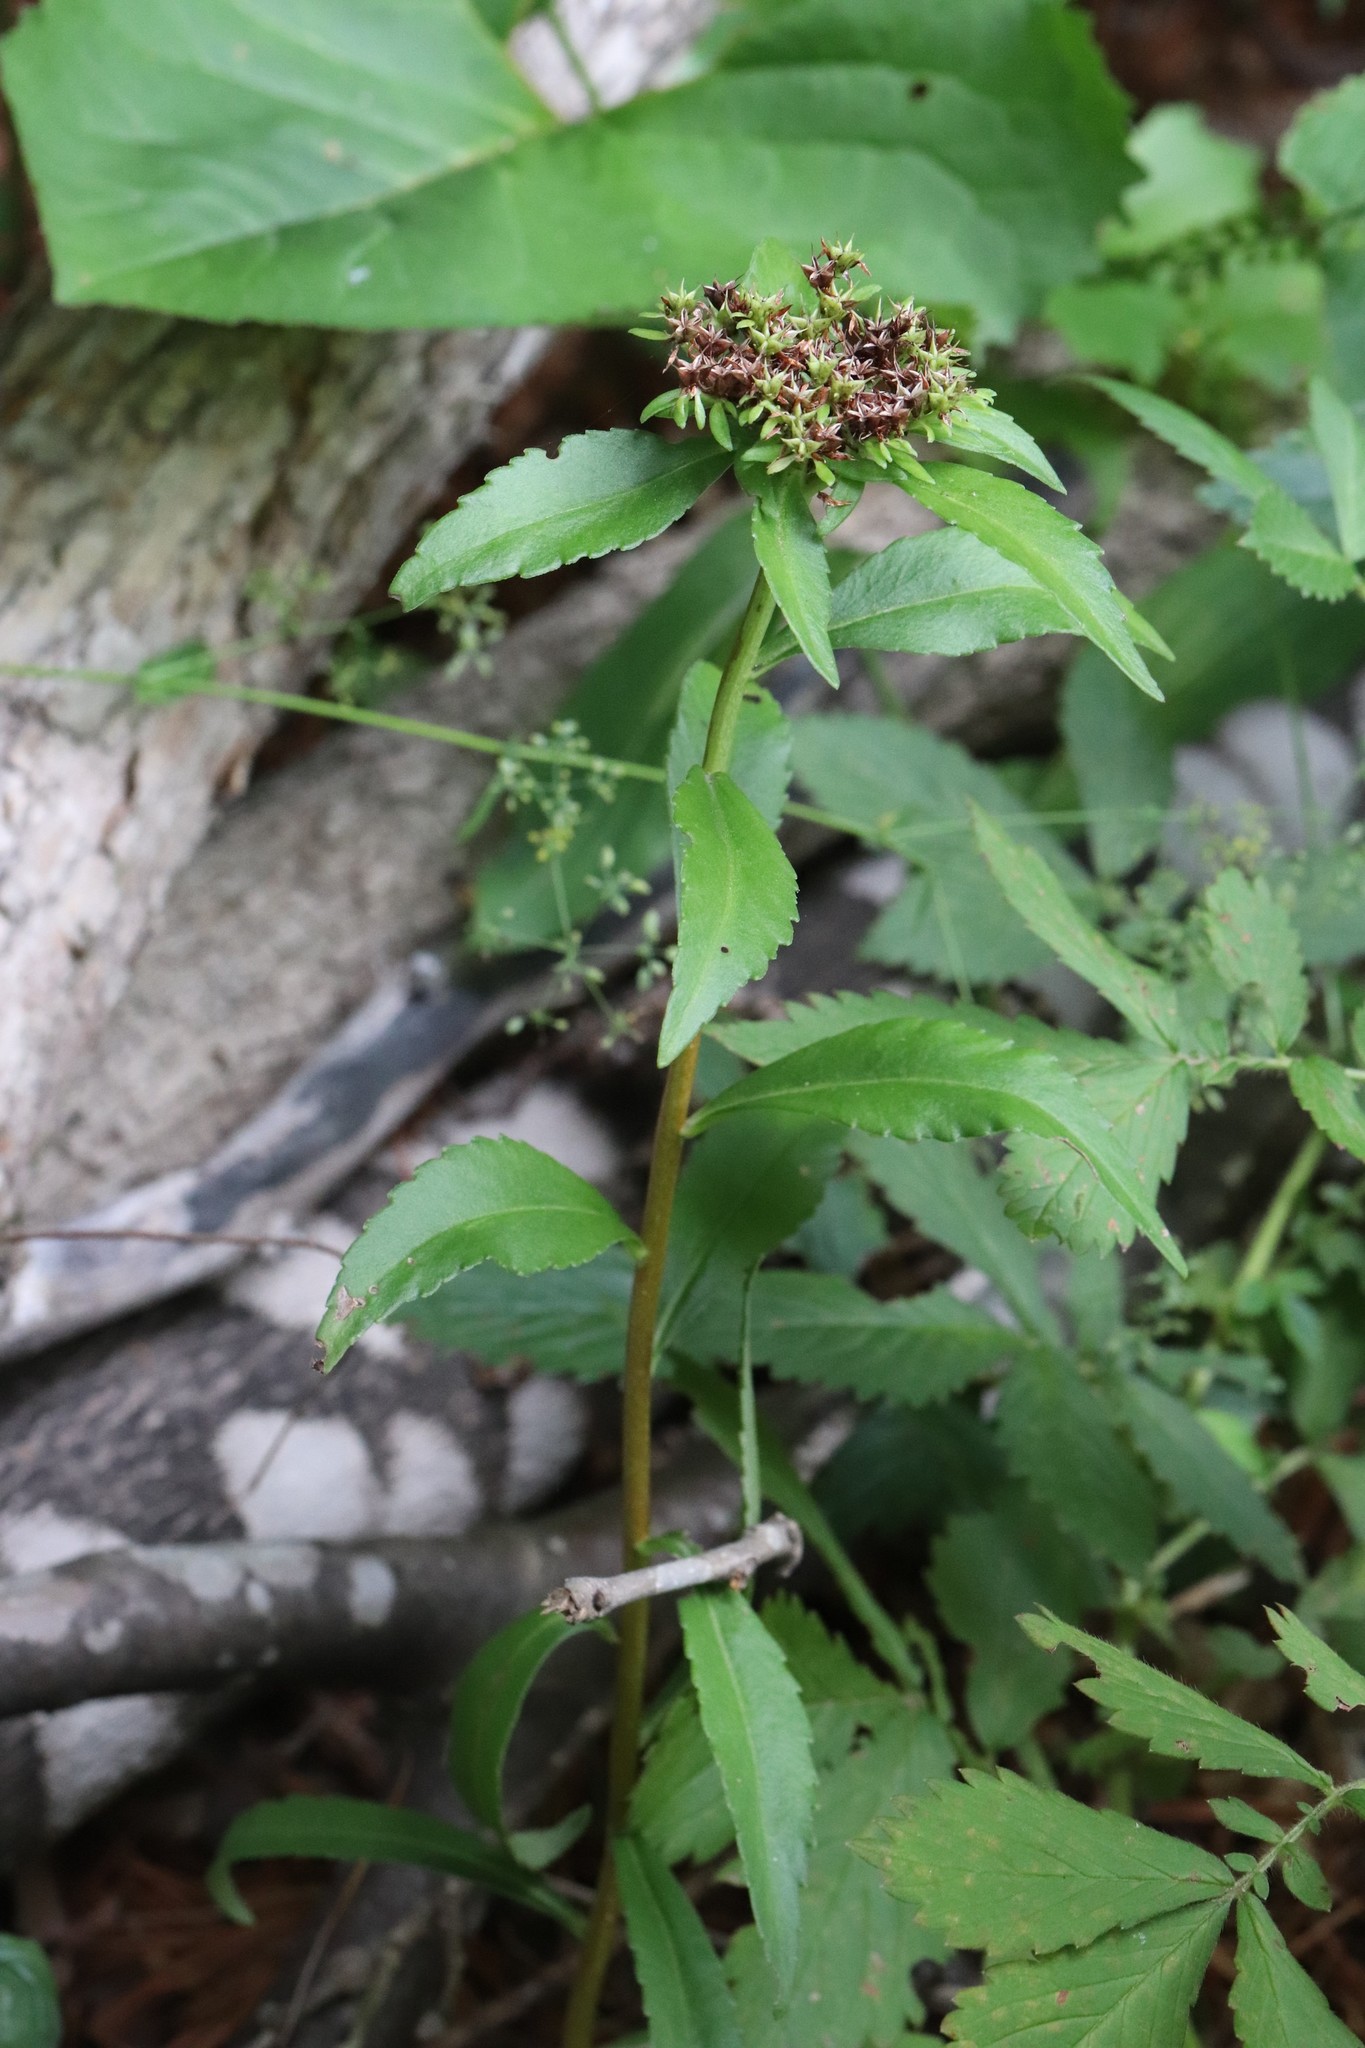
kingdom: Plantae
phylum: Tracheophyta
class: Magnoliopsida
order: Saxifragales
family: Crassulaceae
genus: Phedimus
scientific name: Phedimus aizoon
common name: Orpin aizoon
